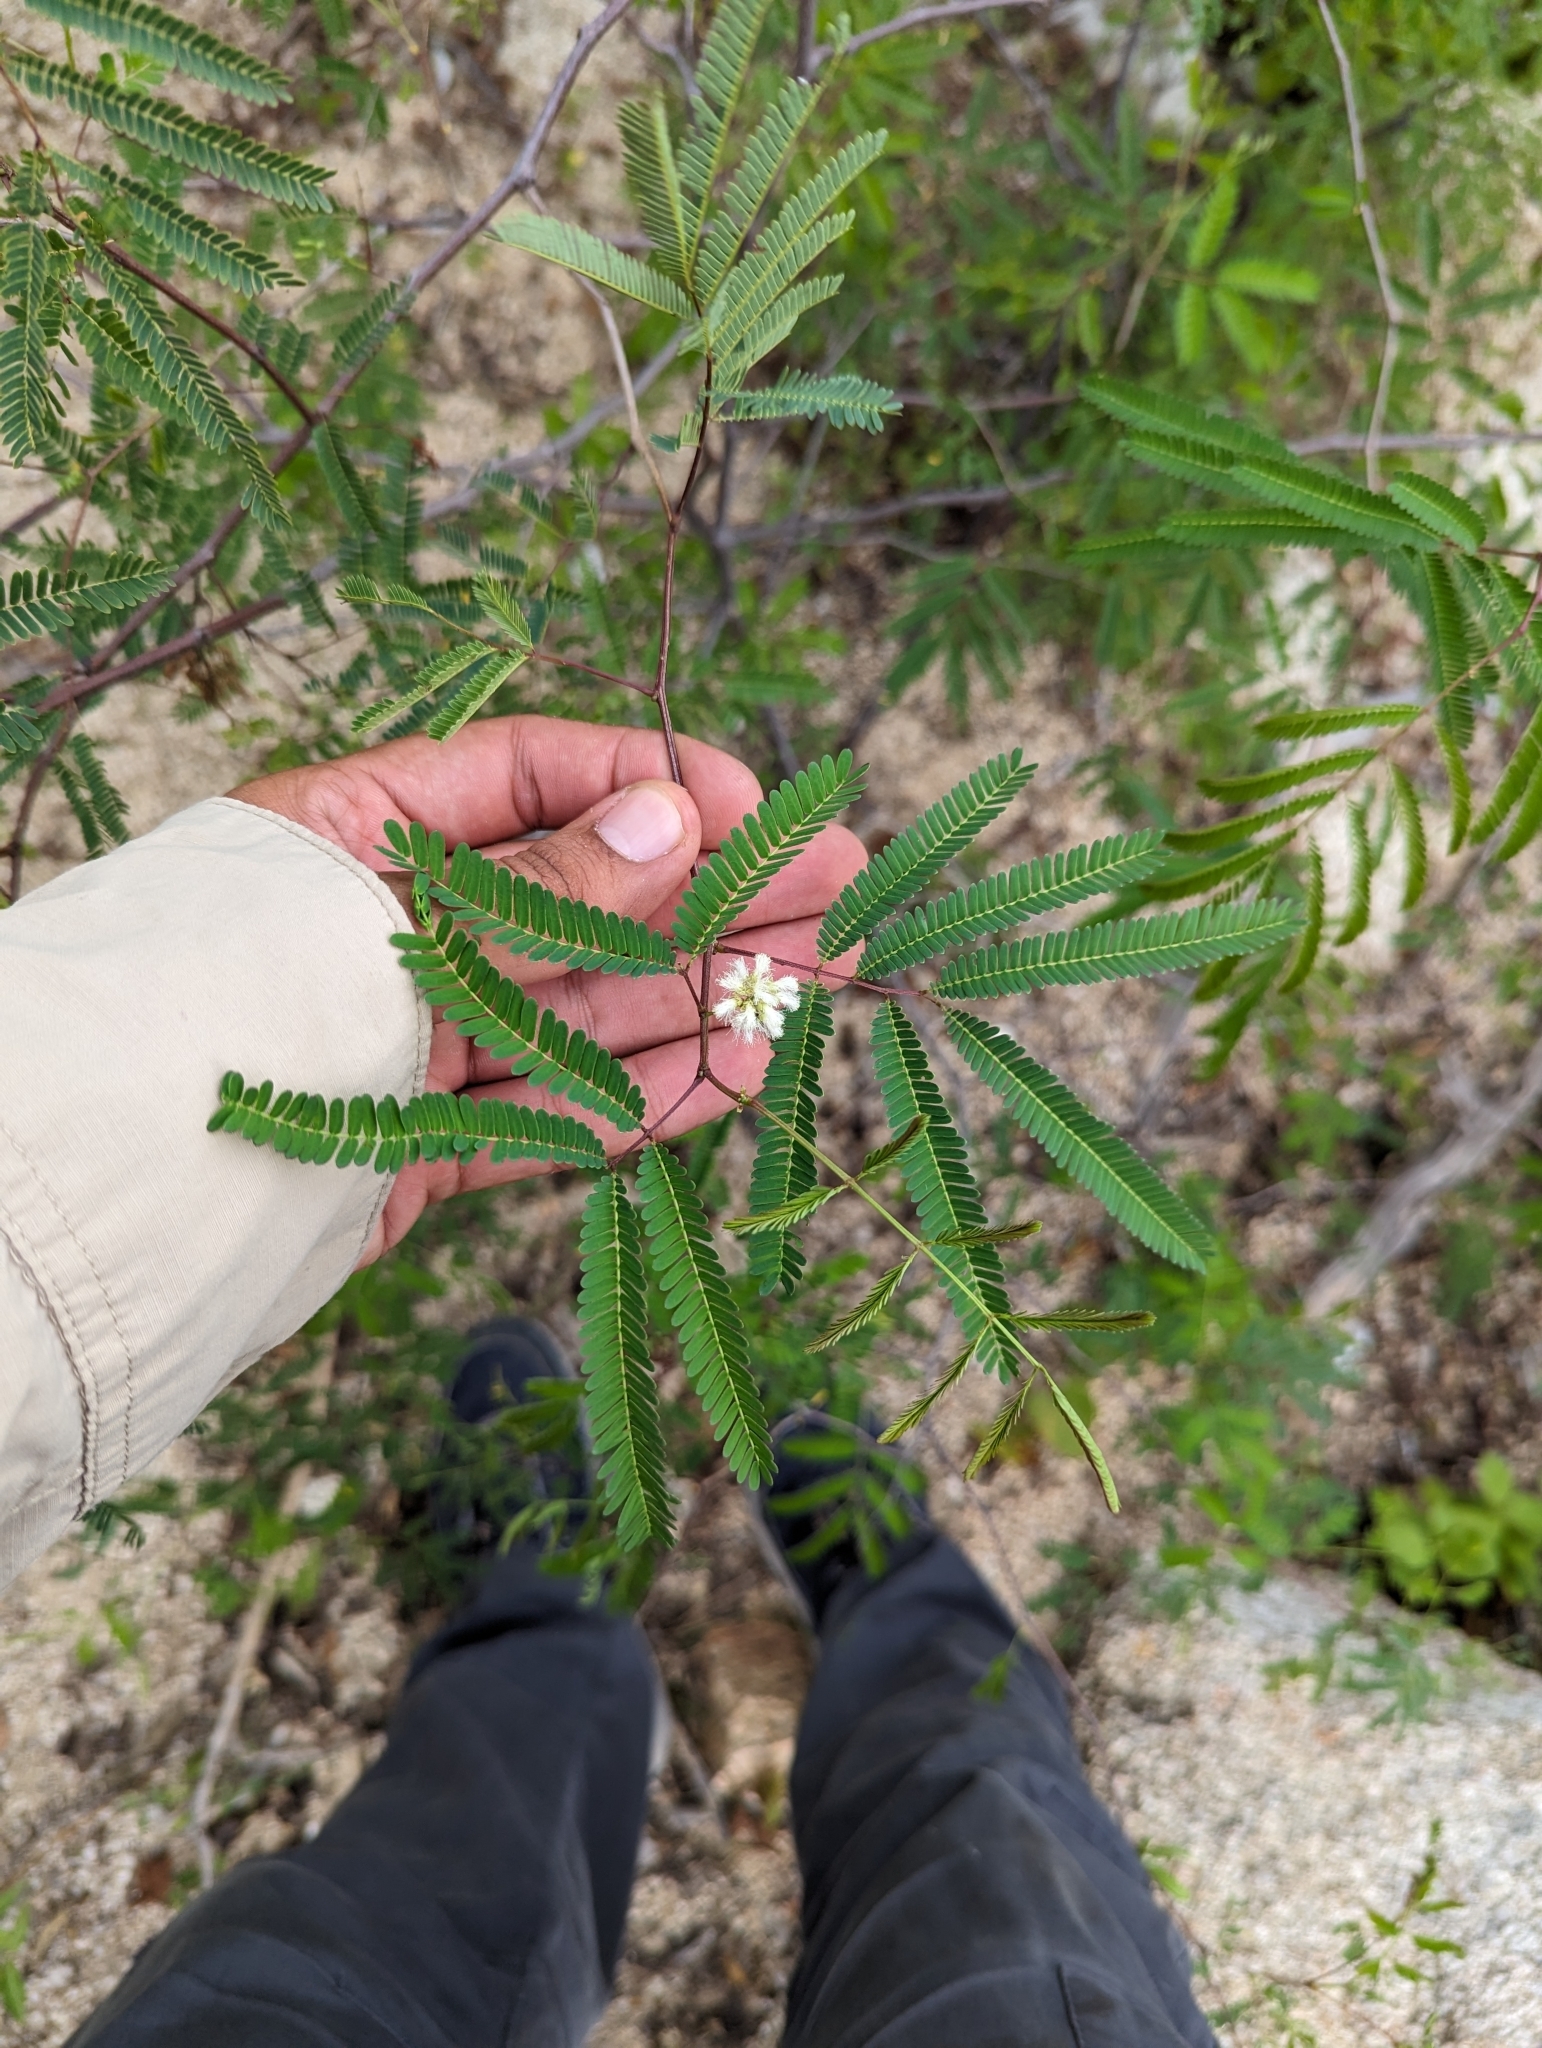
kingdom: Plantae
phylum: Tracheophyta
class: Magnoliopsida
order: Fabales
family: Fabaceae
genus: Acaciella
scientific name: Acaciella goldmanii
